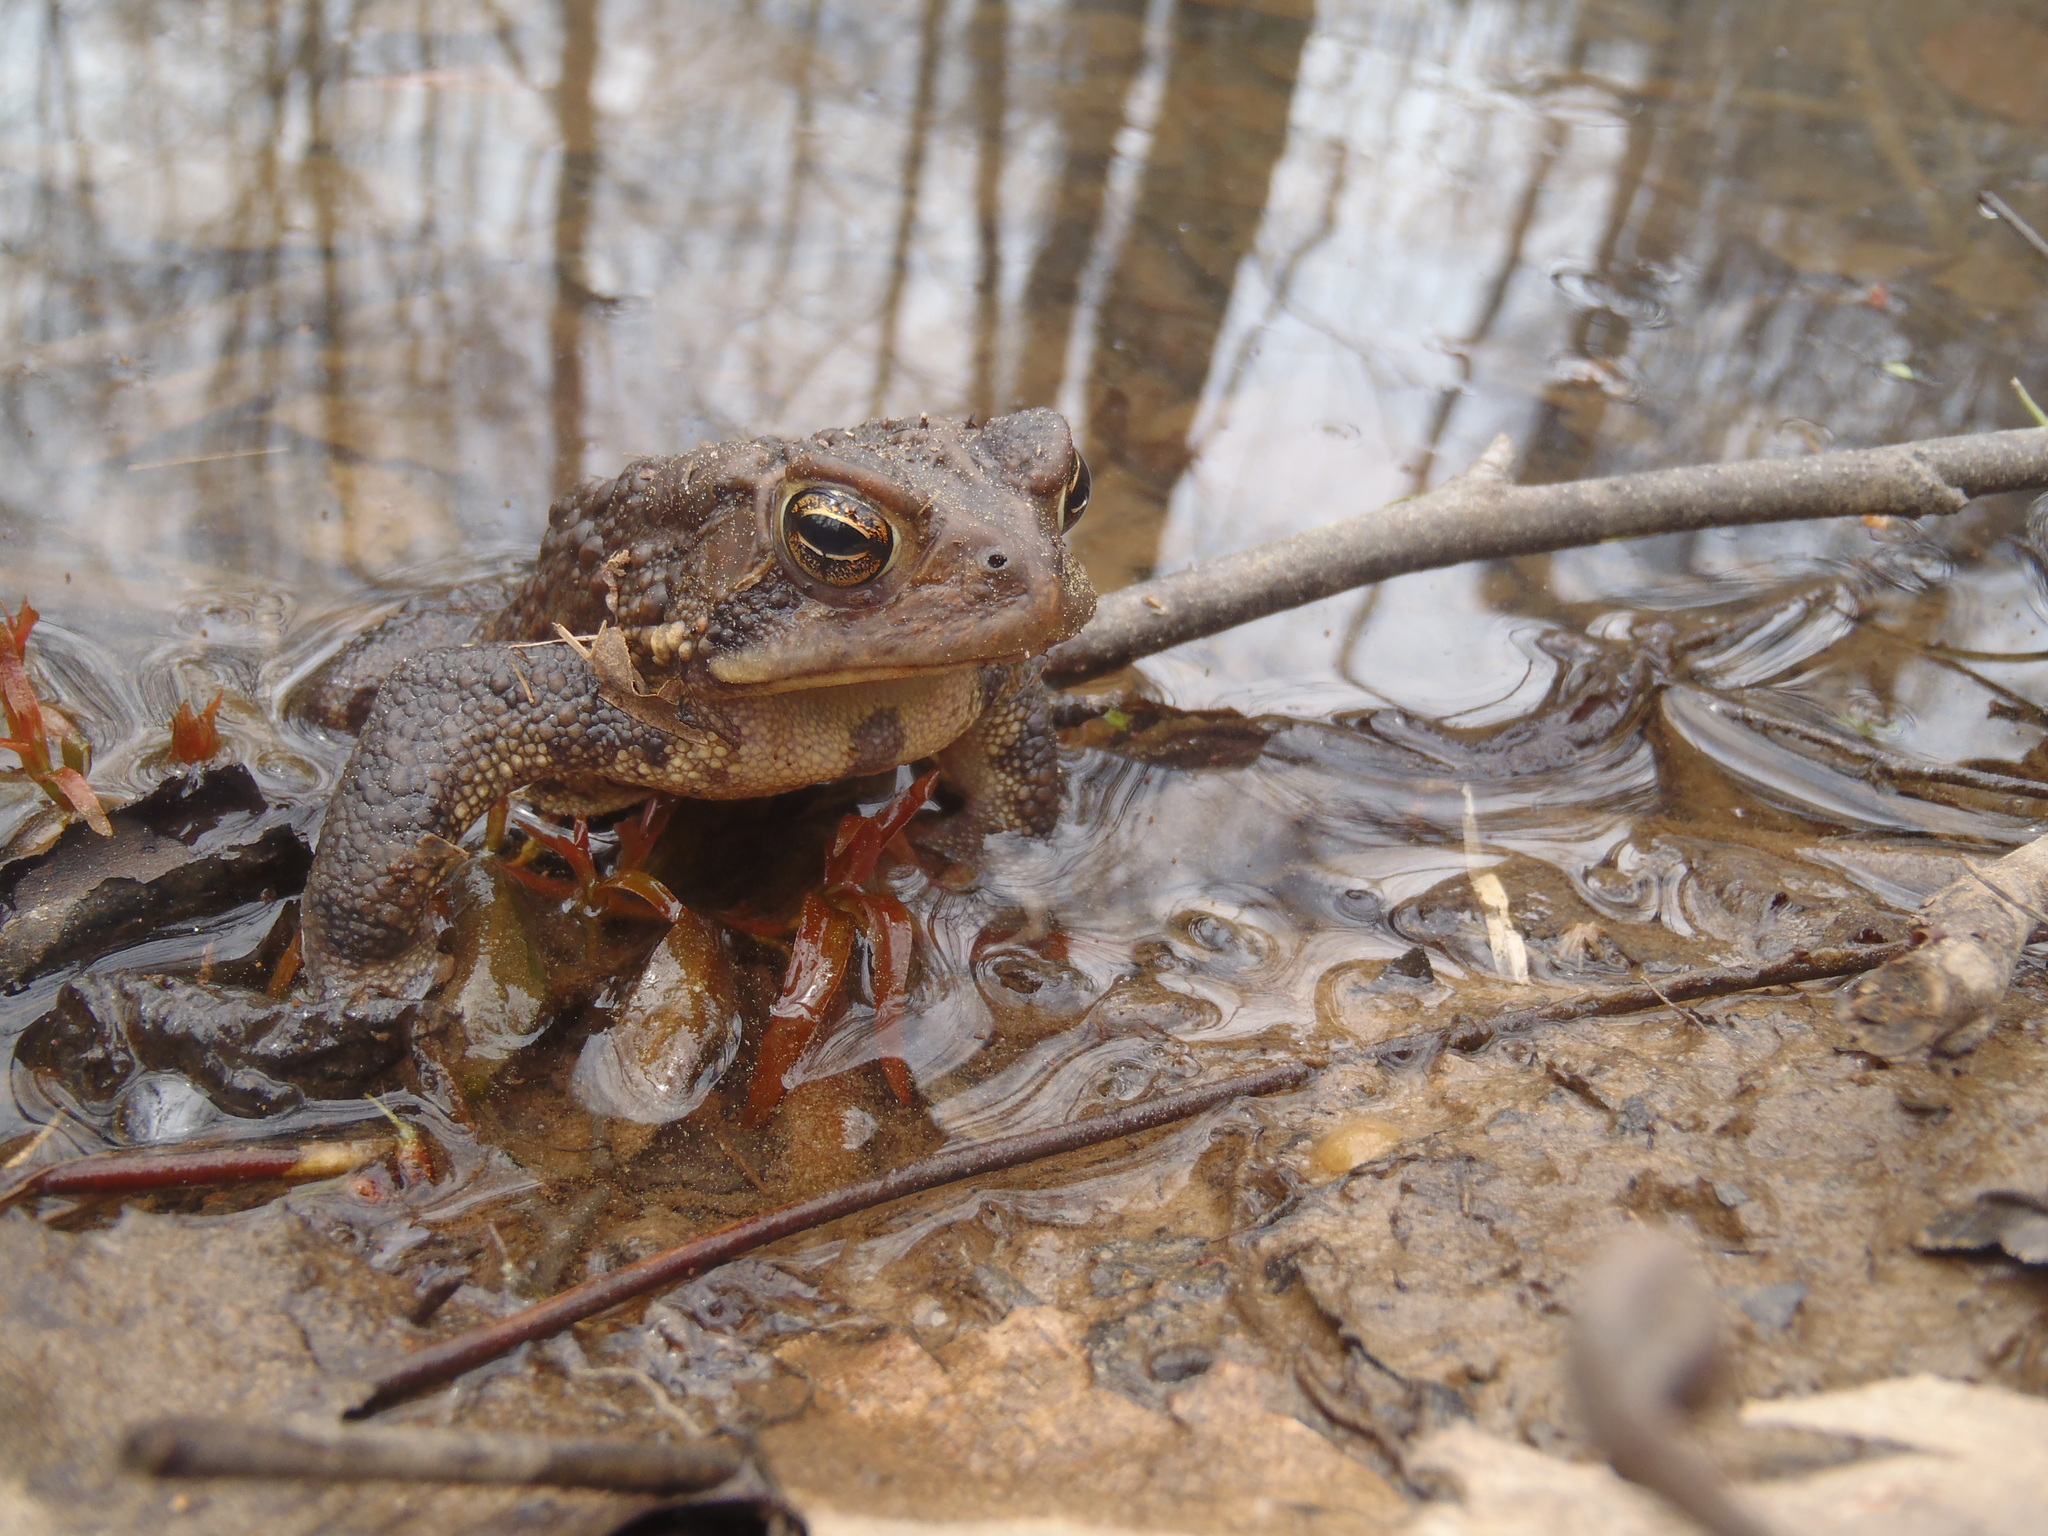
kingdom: Animalia
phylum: Chordata
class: Amphibia
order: Anura
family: Bufonidae
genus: Anaxyrus
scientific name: Anaxyrus americanus
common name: American toad
